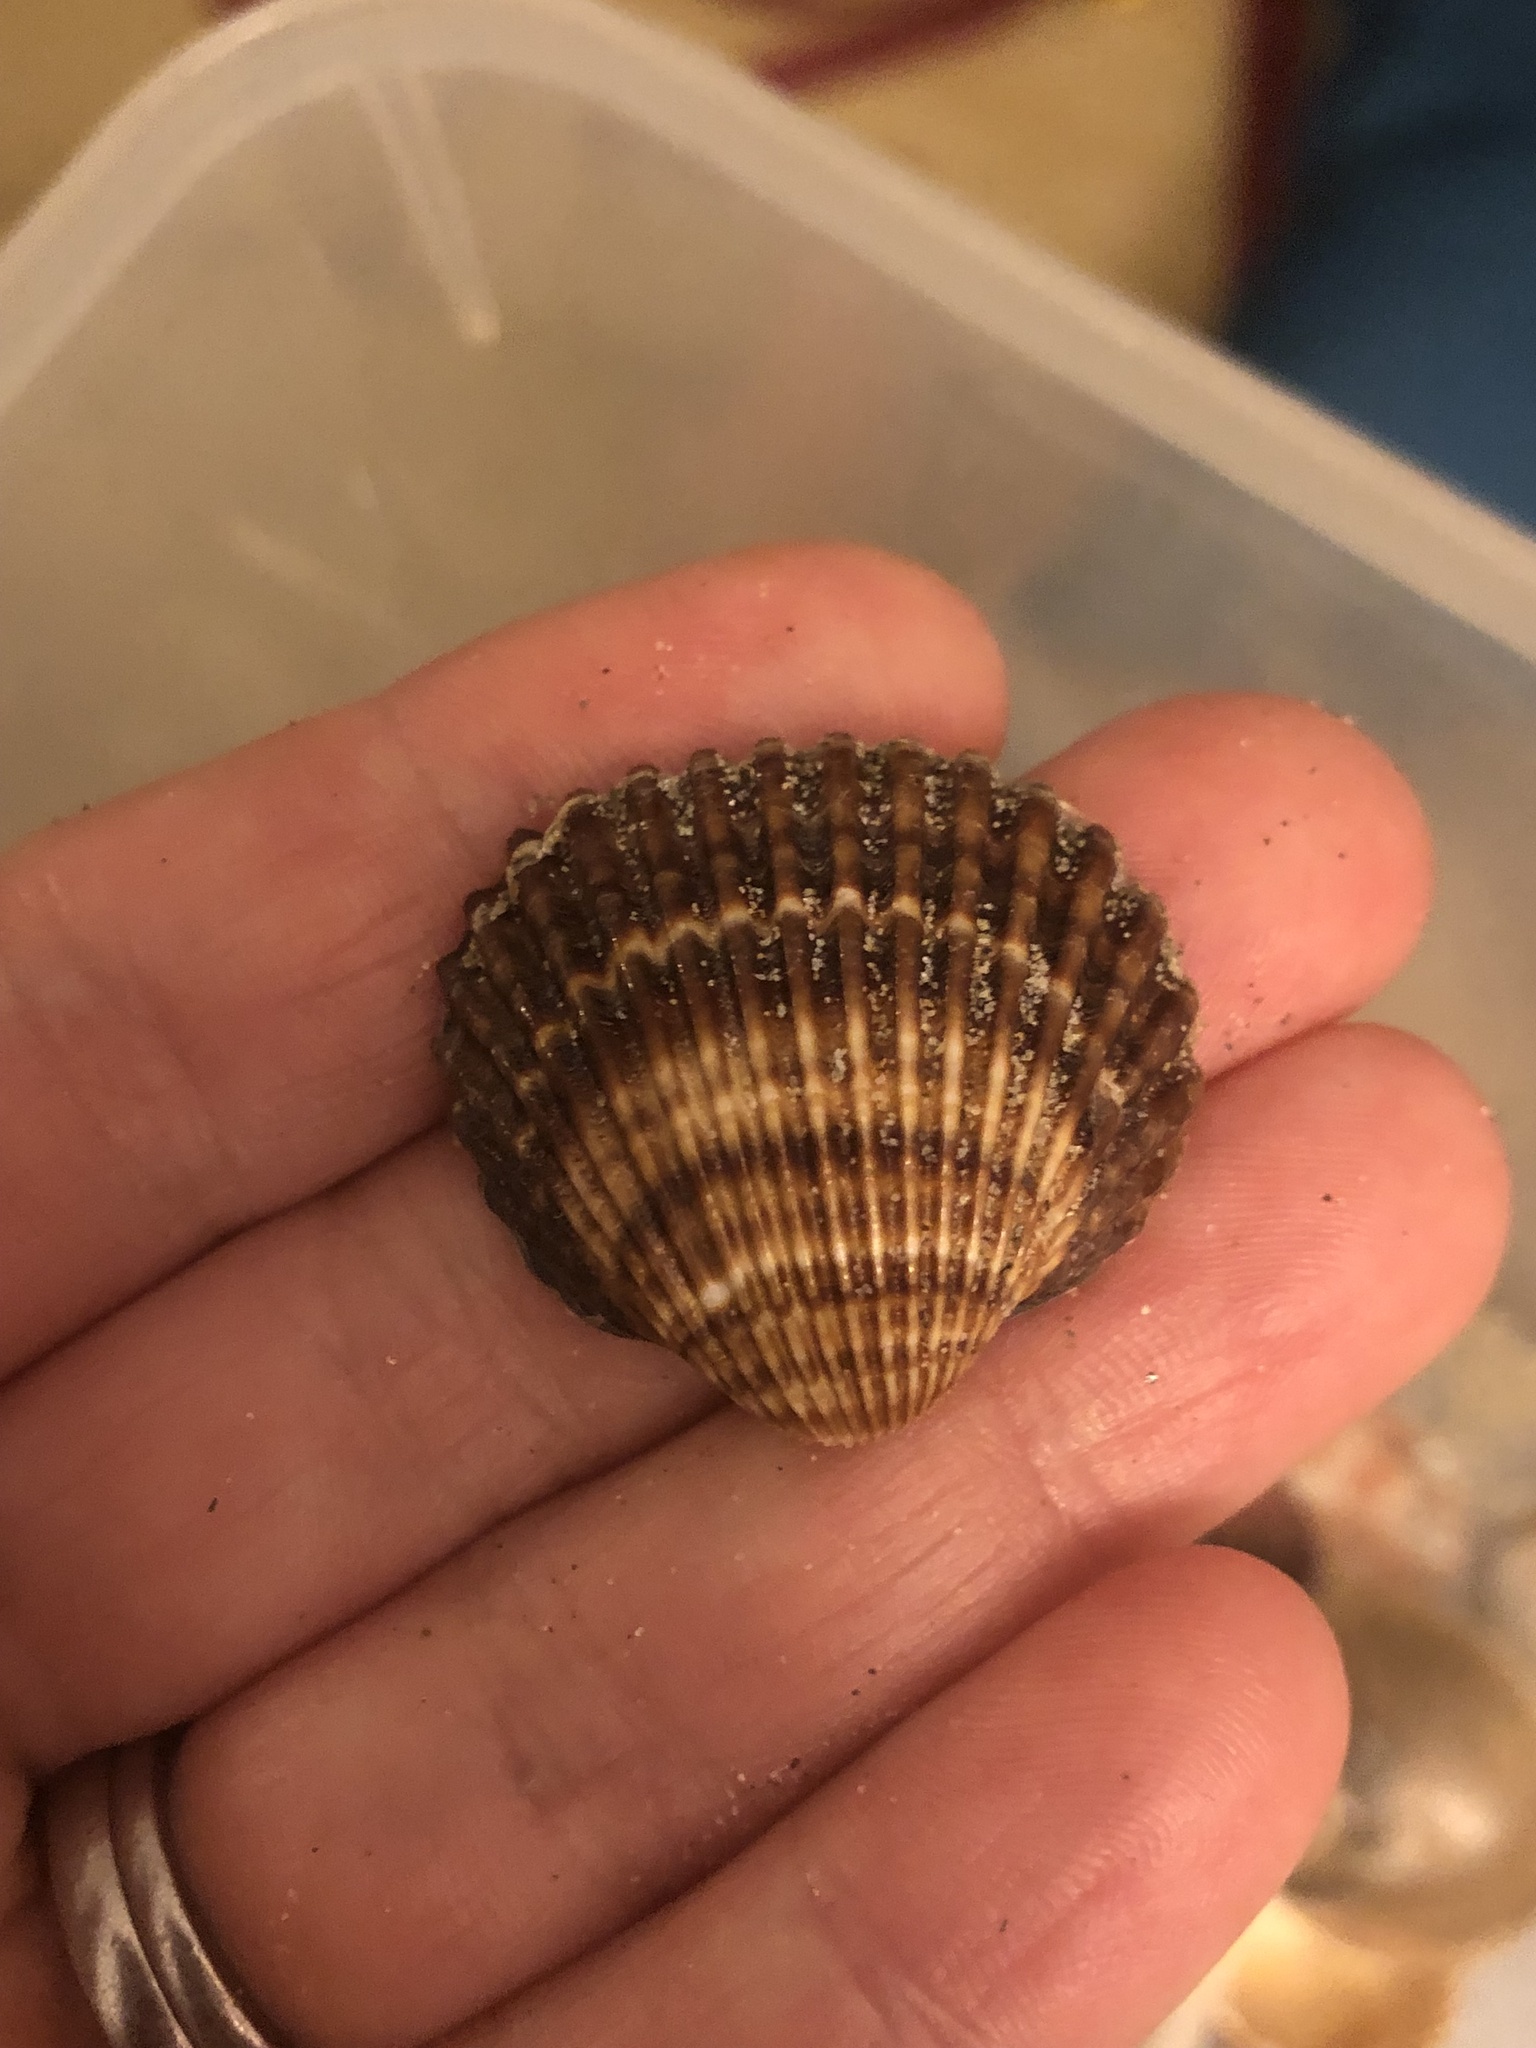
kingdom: Animalia
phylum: Mollusca
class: Bivalvia
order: Cardiida
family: Cardiidae
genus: Acanthocardia
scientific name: Acanthocardia tuberculata
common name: Rough cockle
